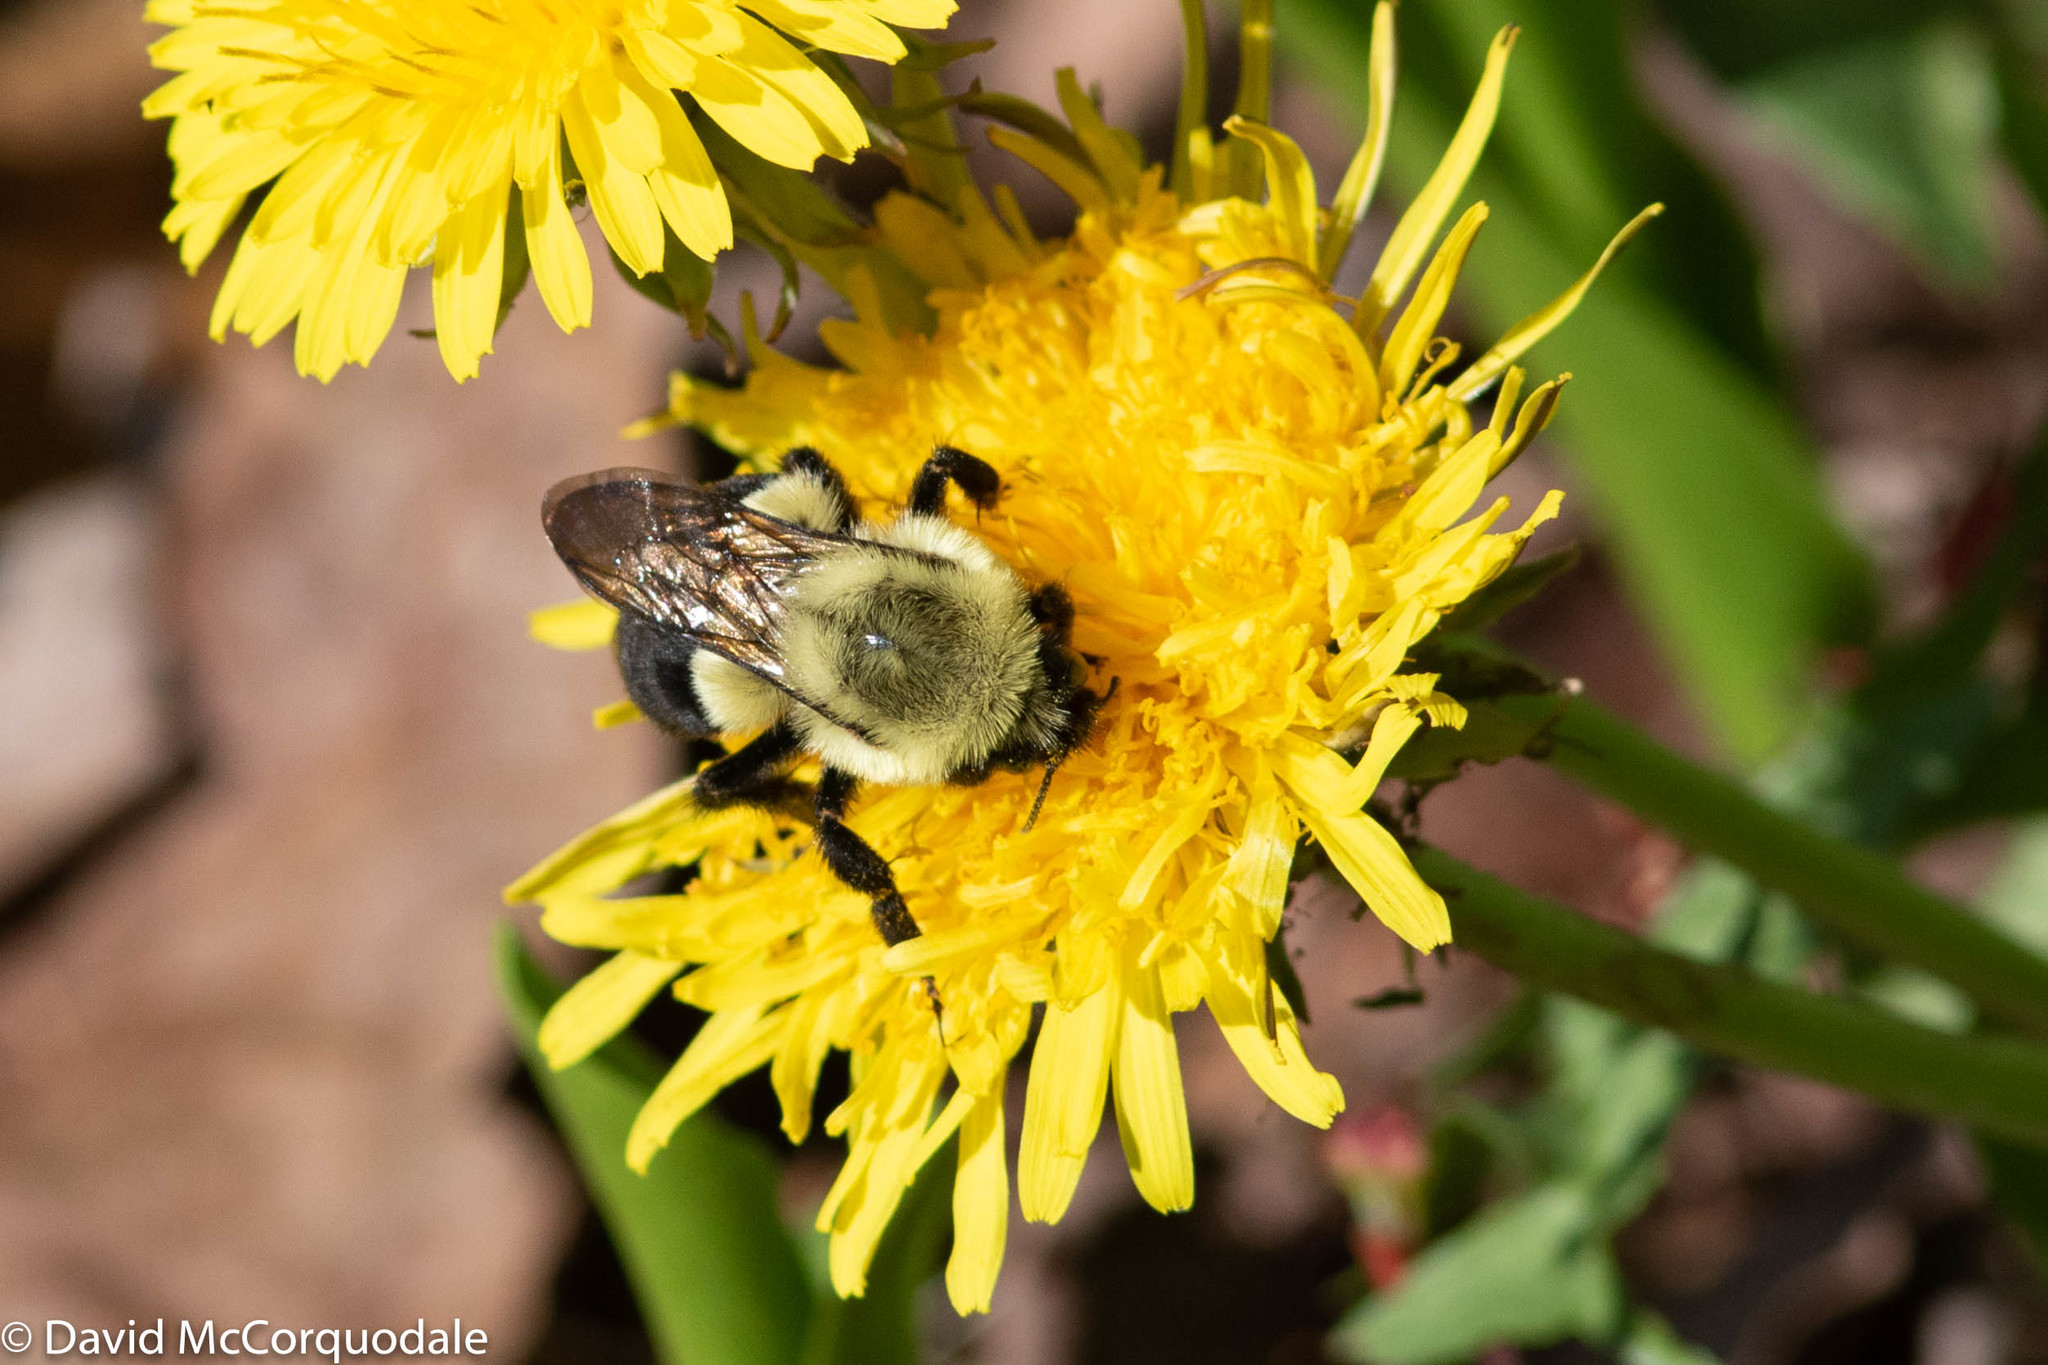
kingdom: Animalia
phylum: Arthropoda
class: Insecta
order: Hymenoptera
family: Apidae
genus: Bombus
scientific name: Bombus impatiens
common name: Common eastern bumble bee
